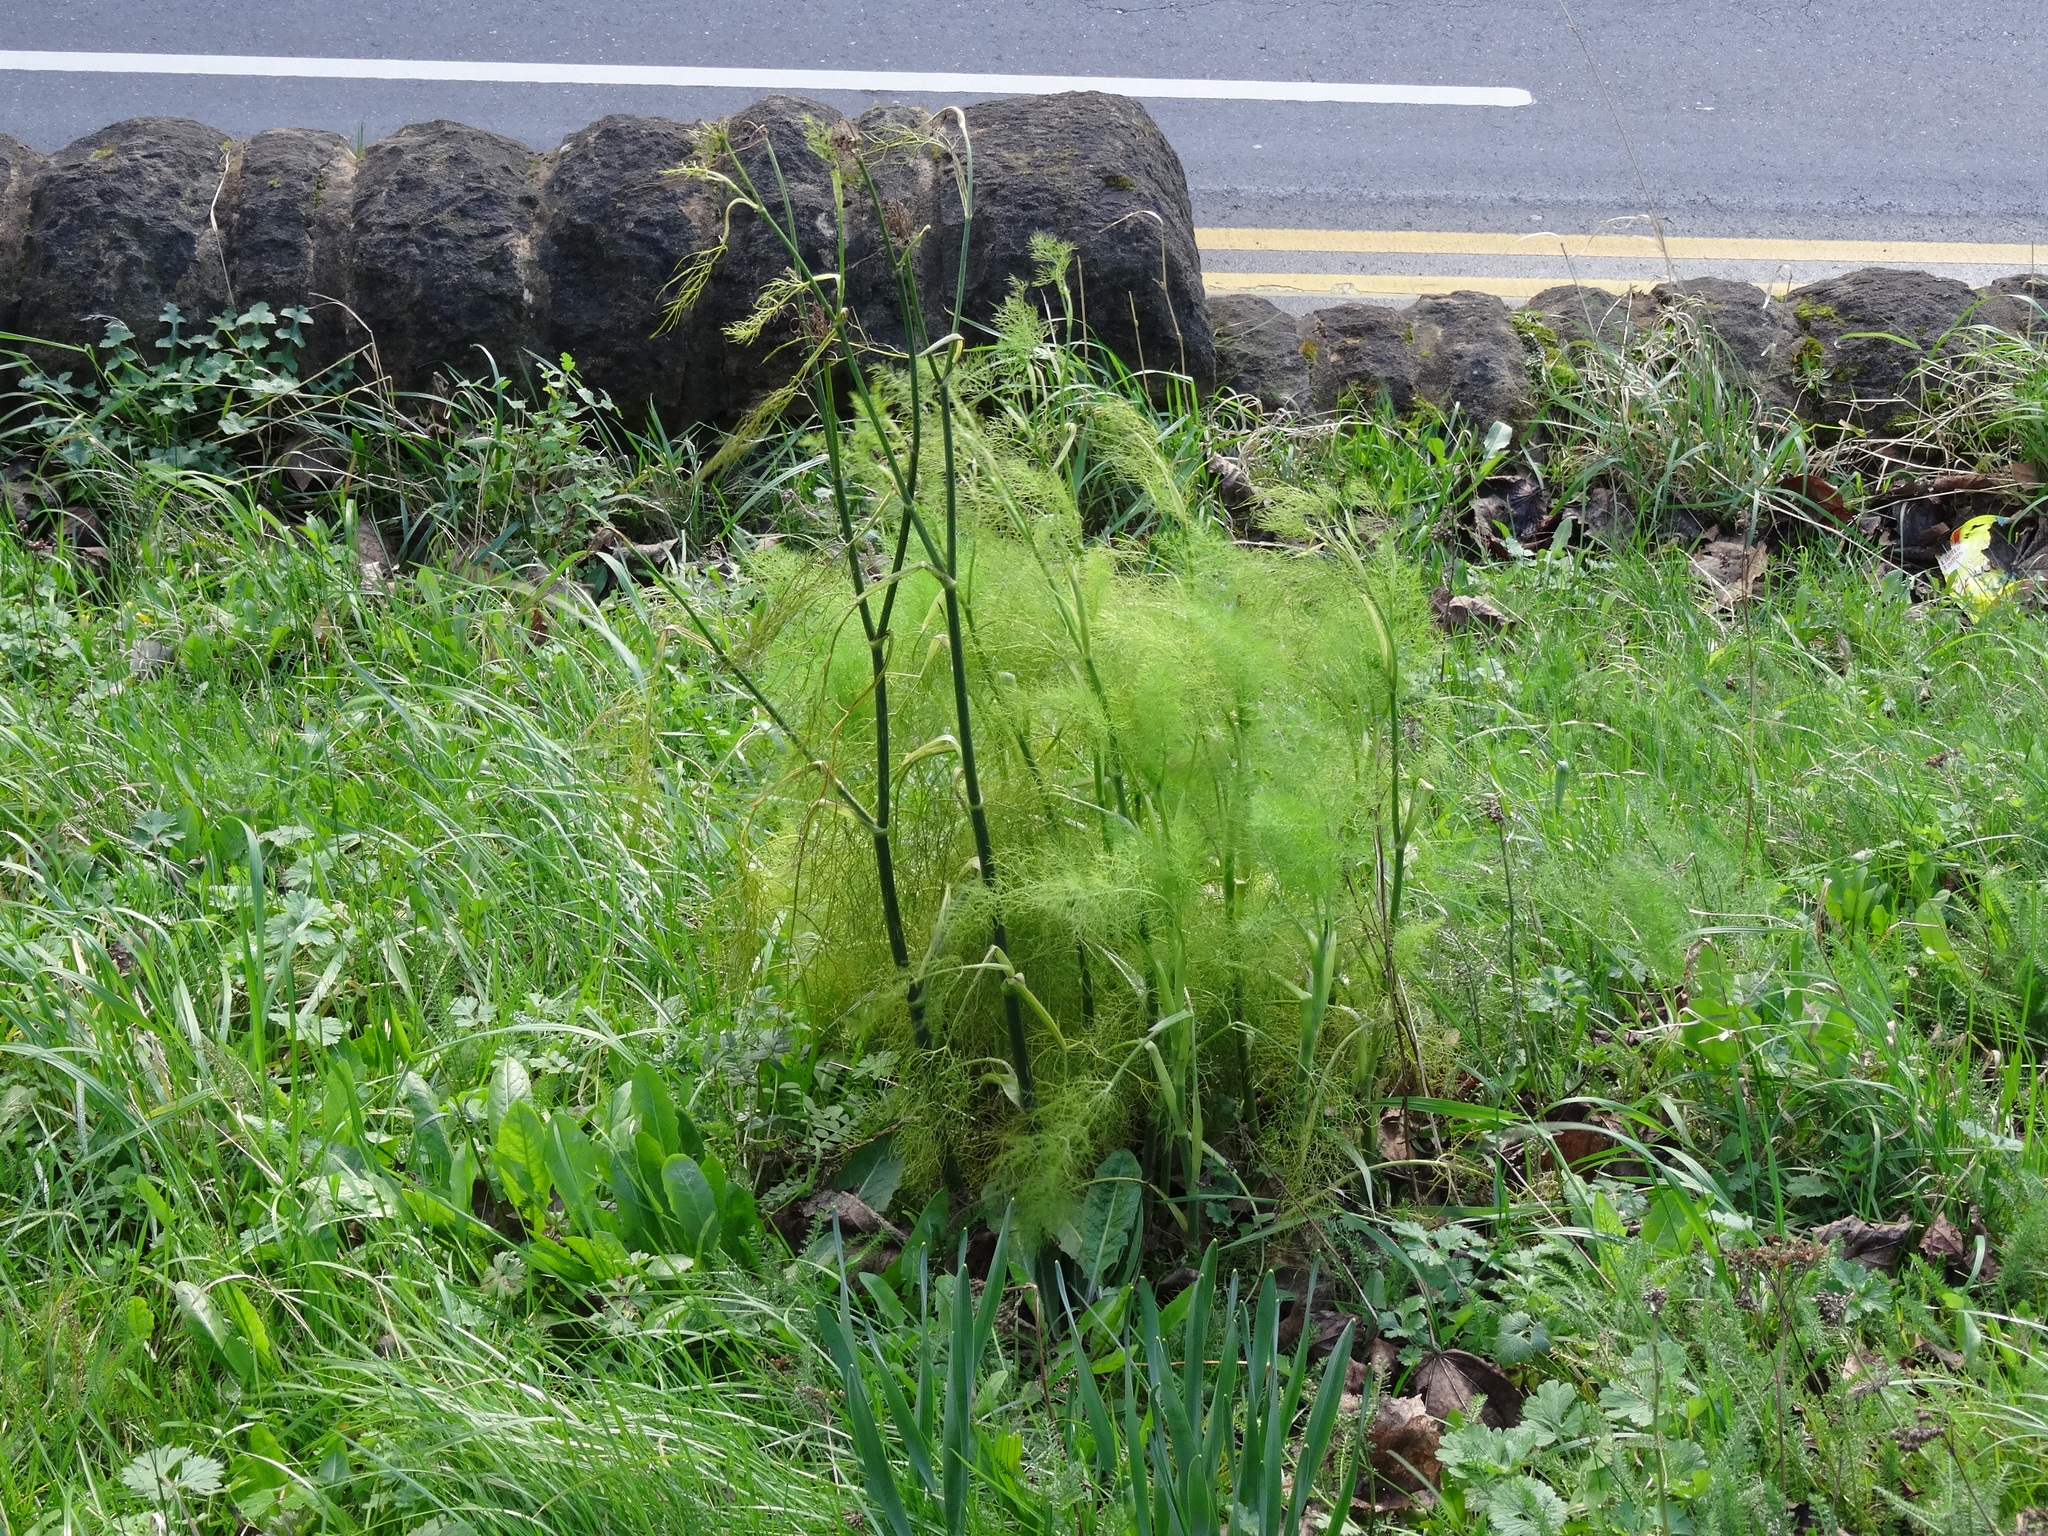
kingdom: Plantae
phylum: Tracheophyta
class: Magnoliopsida
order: Apiales
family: Apiaceae
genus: Foeniculum
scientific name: Foeniculum vulgare
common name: Fennel
